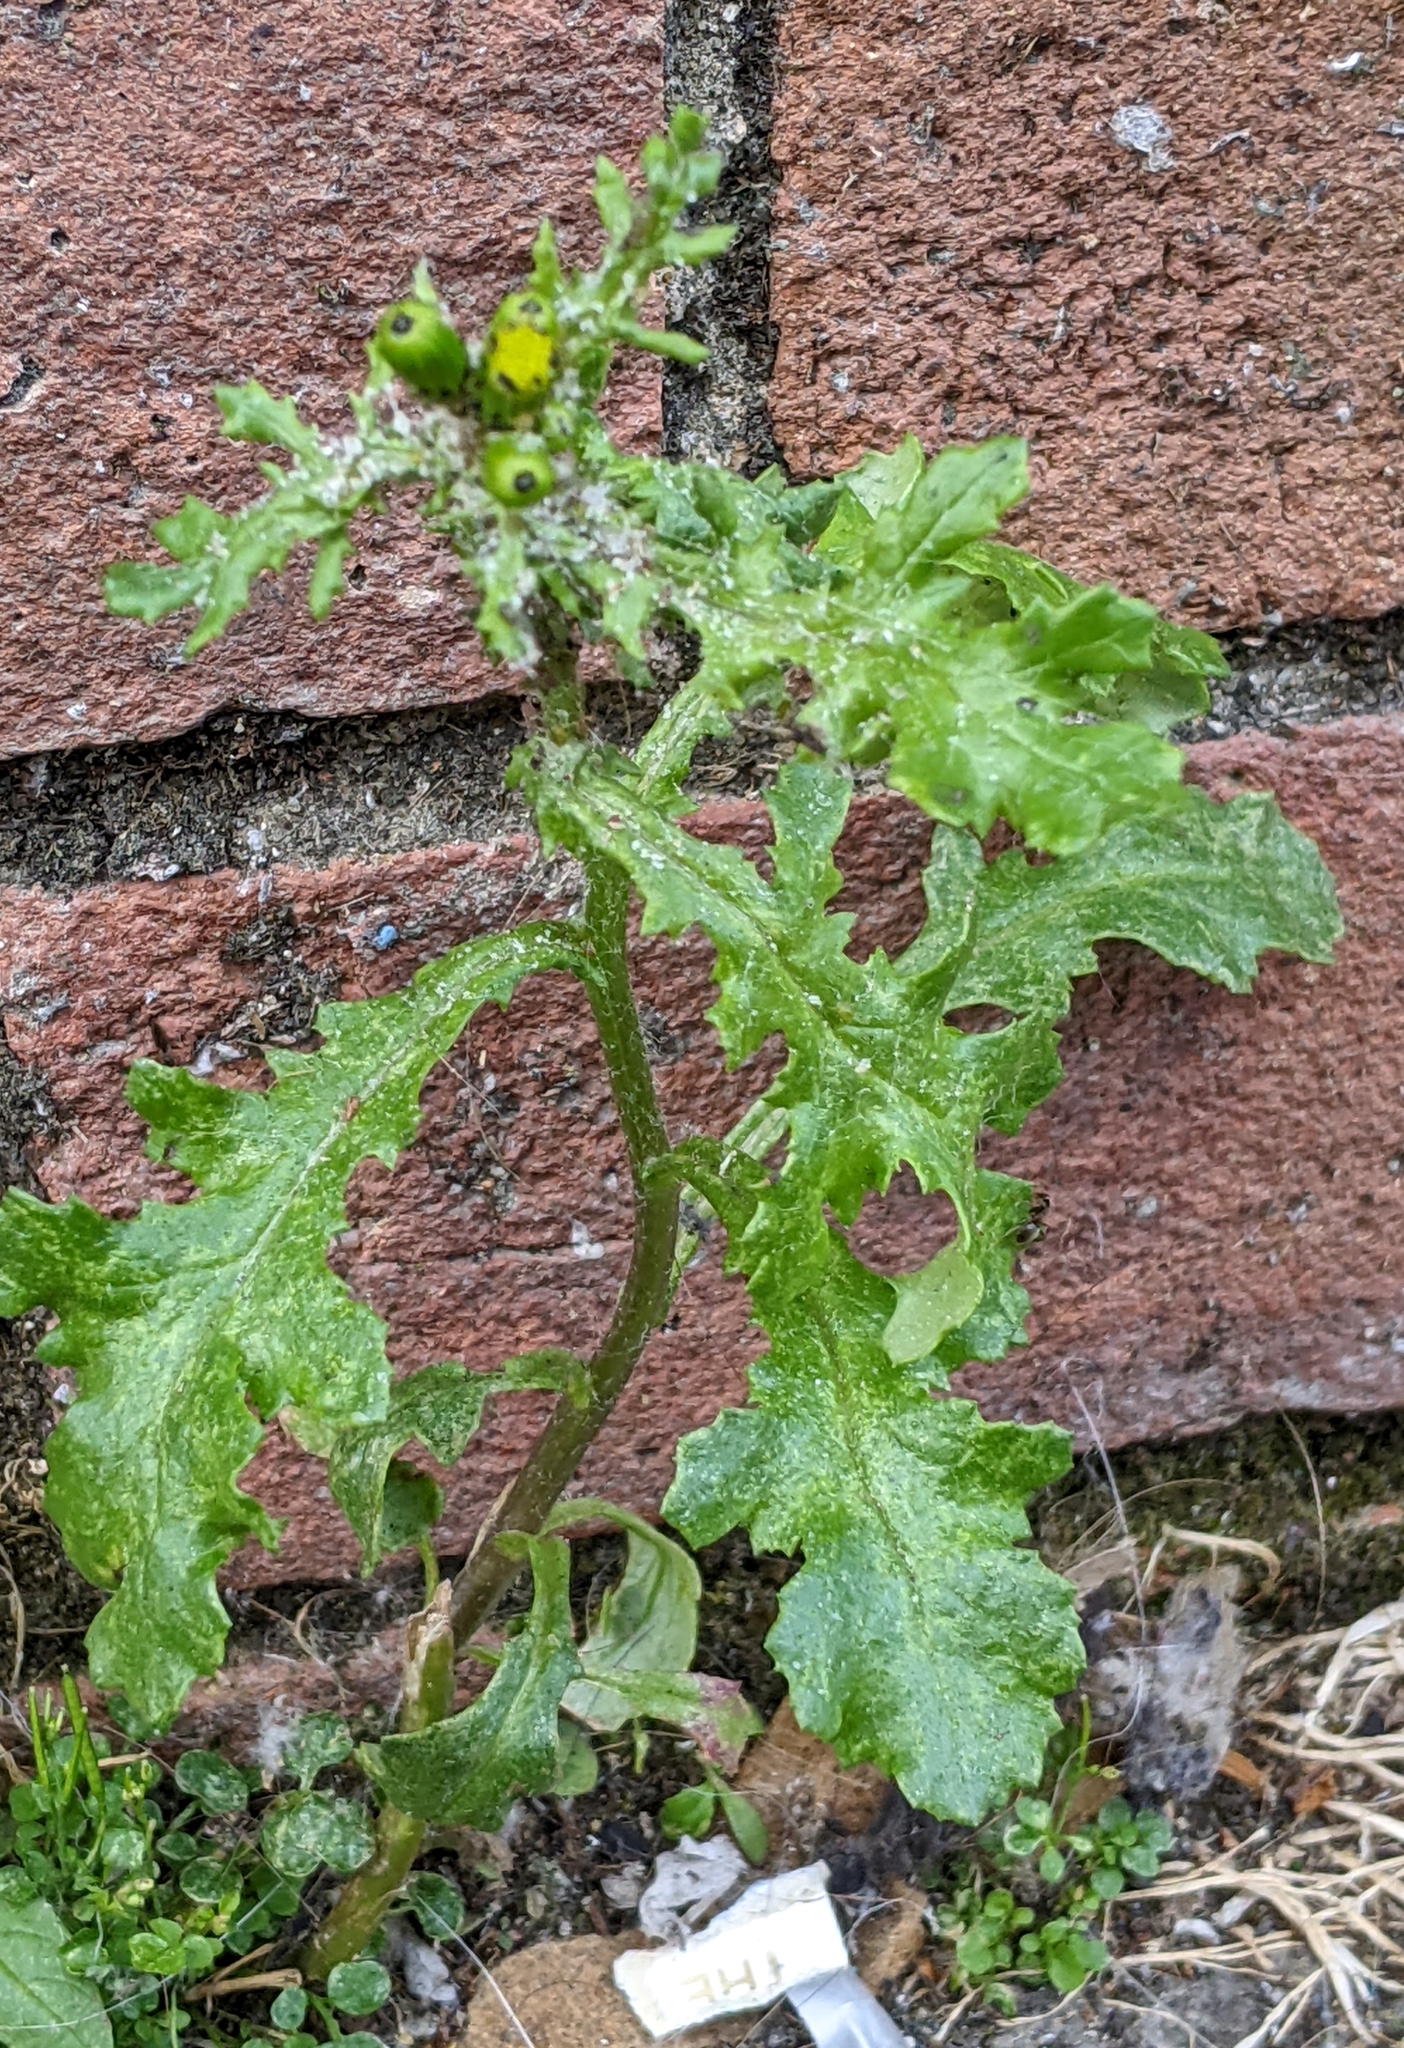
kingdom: Plantae
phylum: Tracheophyta
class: Magnoliopsida
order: Asterales
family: Asteraceae
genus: Senecio
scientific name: Senecio vulgaris
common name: Old-man-in-the-spring
